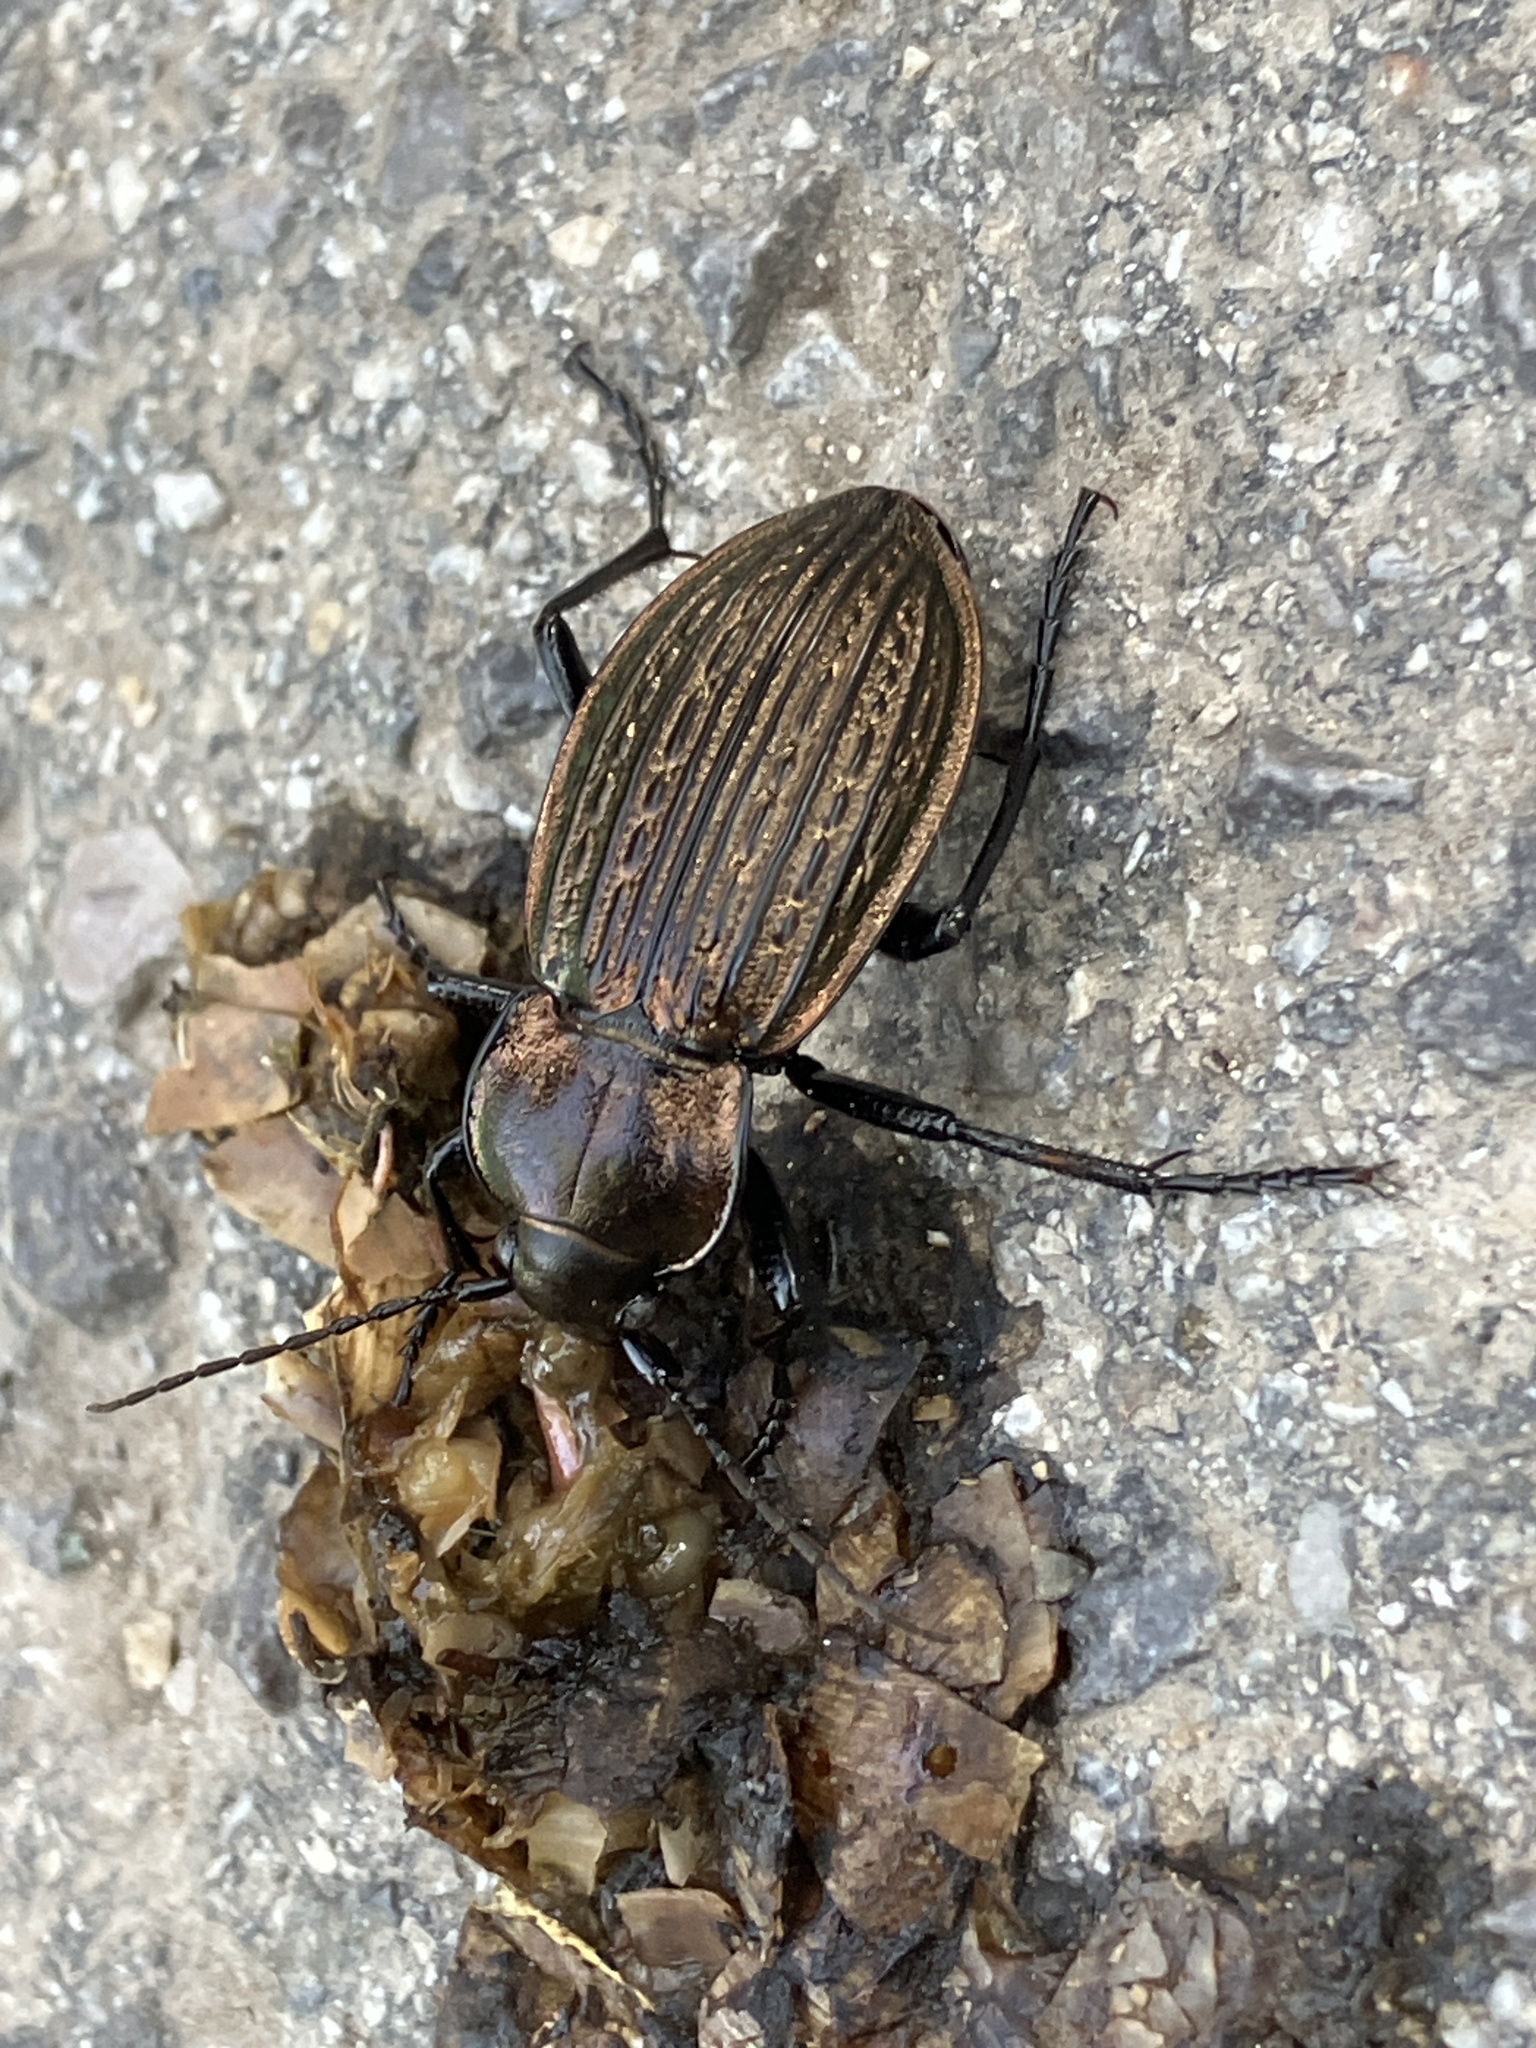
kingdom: Animalia
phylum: Arthropoda
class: Insecta
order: Coleoptera
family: Carabidae
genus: Carabus
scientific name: Carabus ulrichii
